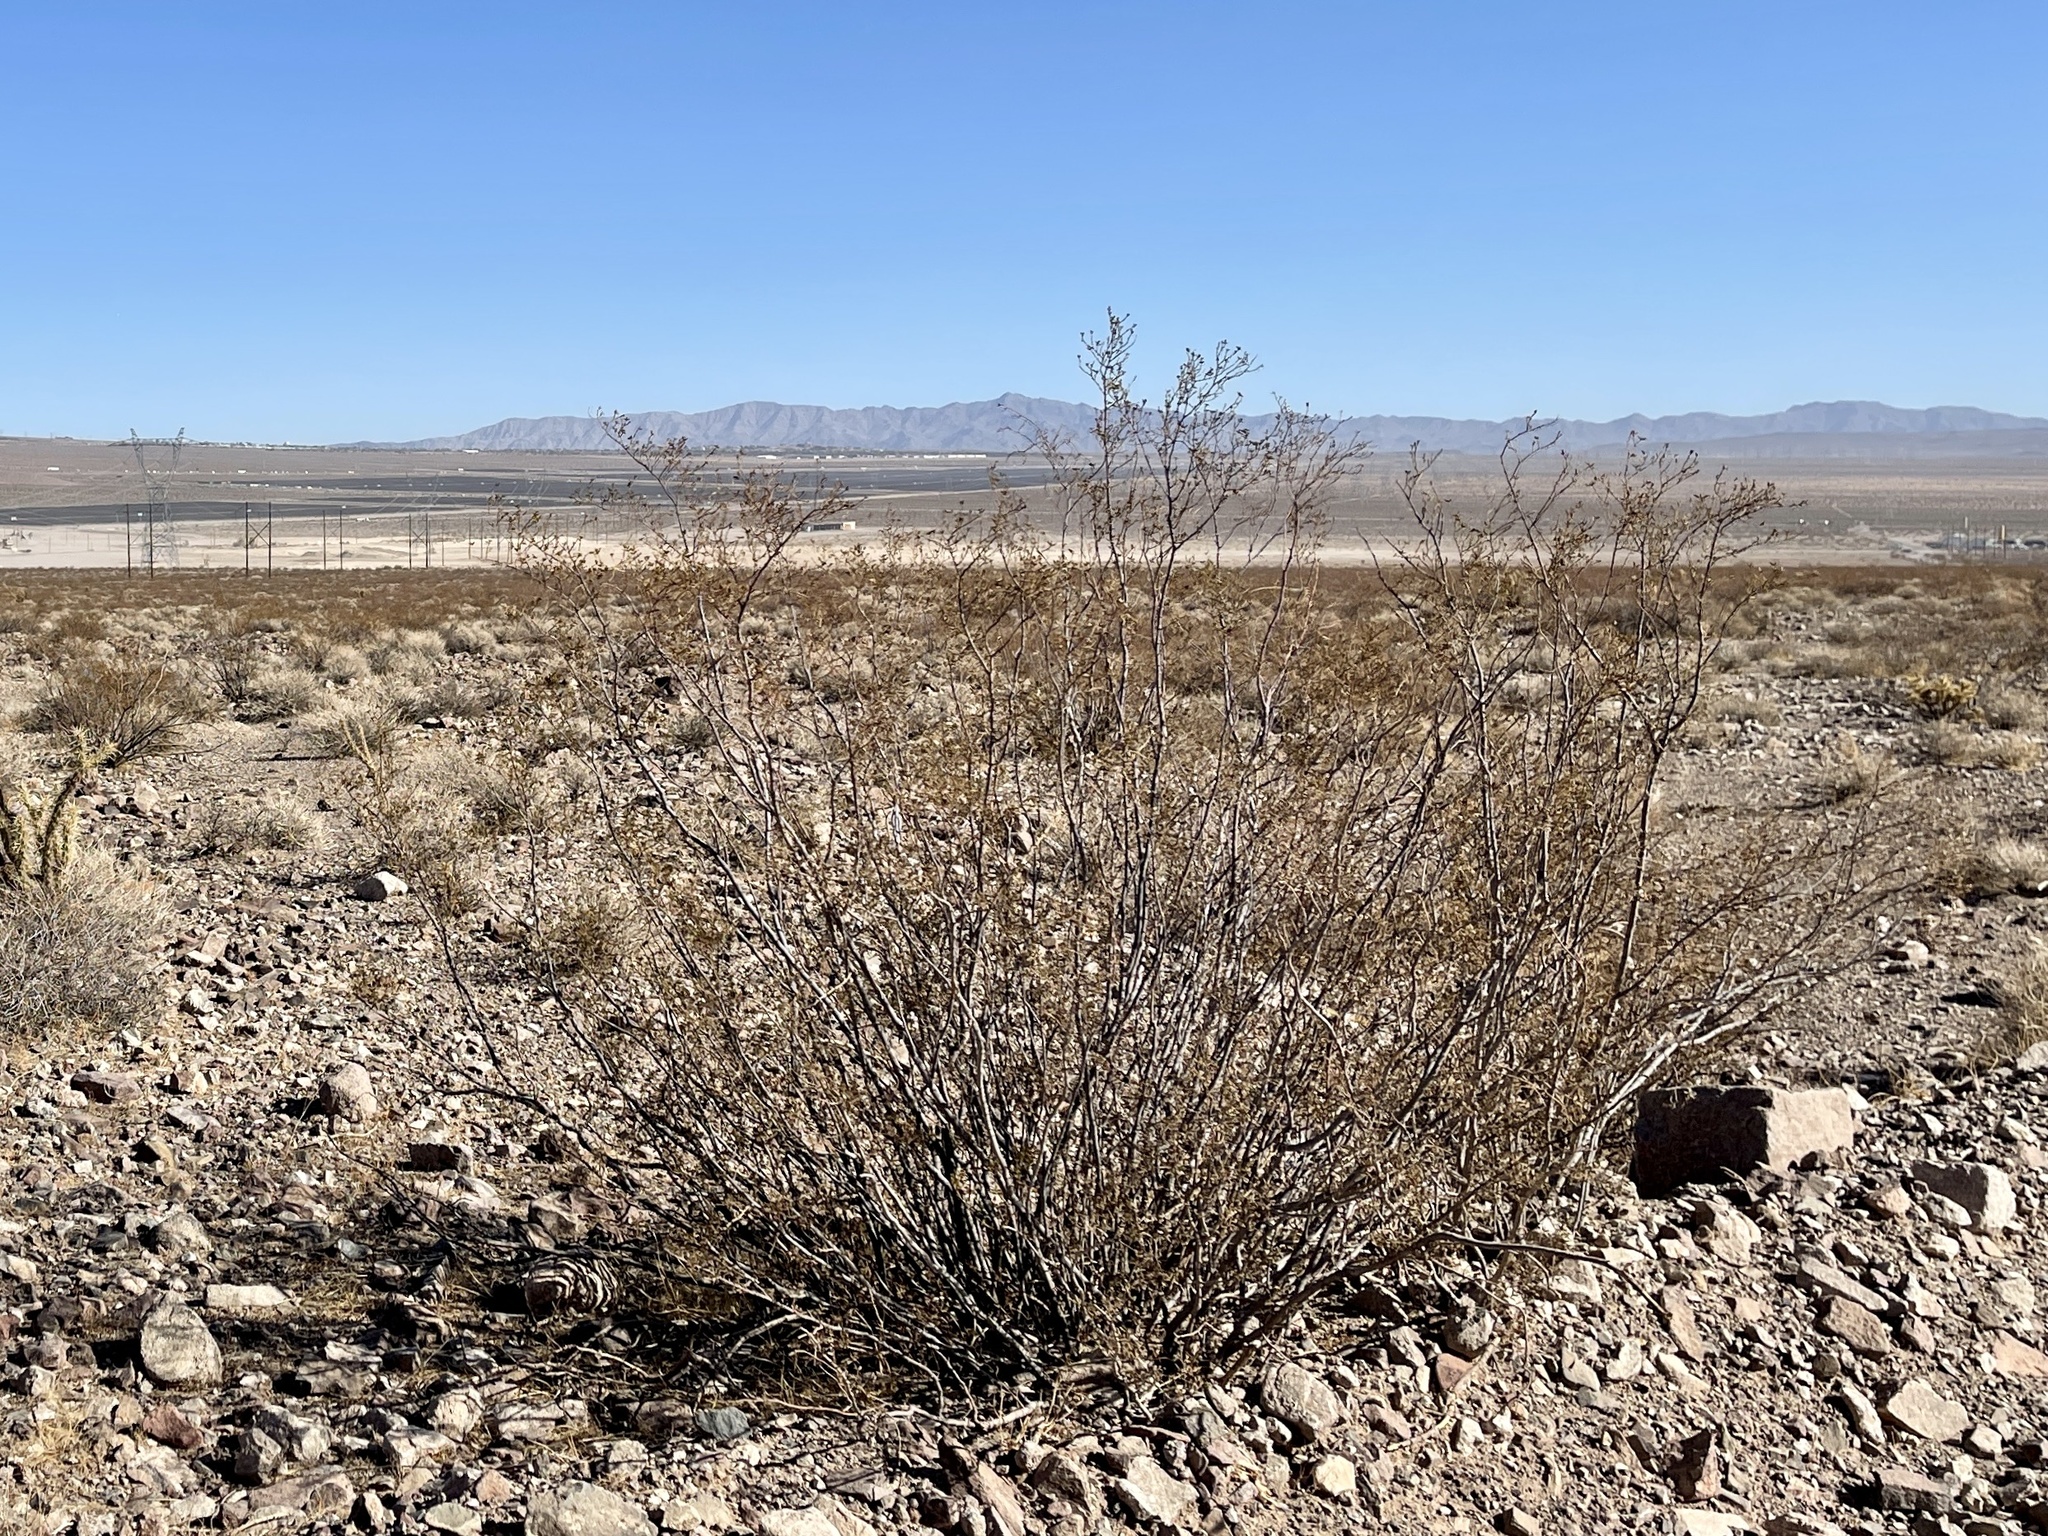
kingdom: Plantae
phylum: Tracheophyta
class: Magnoliopsida
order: Zygophyllales
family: Zygophyllaceae
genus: Larrea
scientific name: Larrea tridentata
